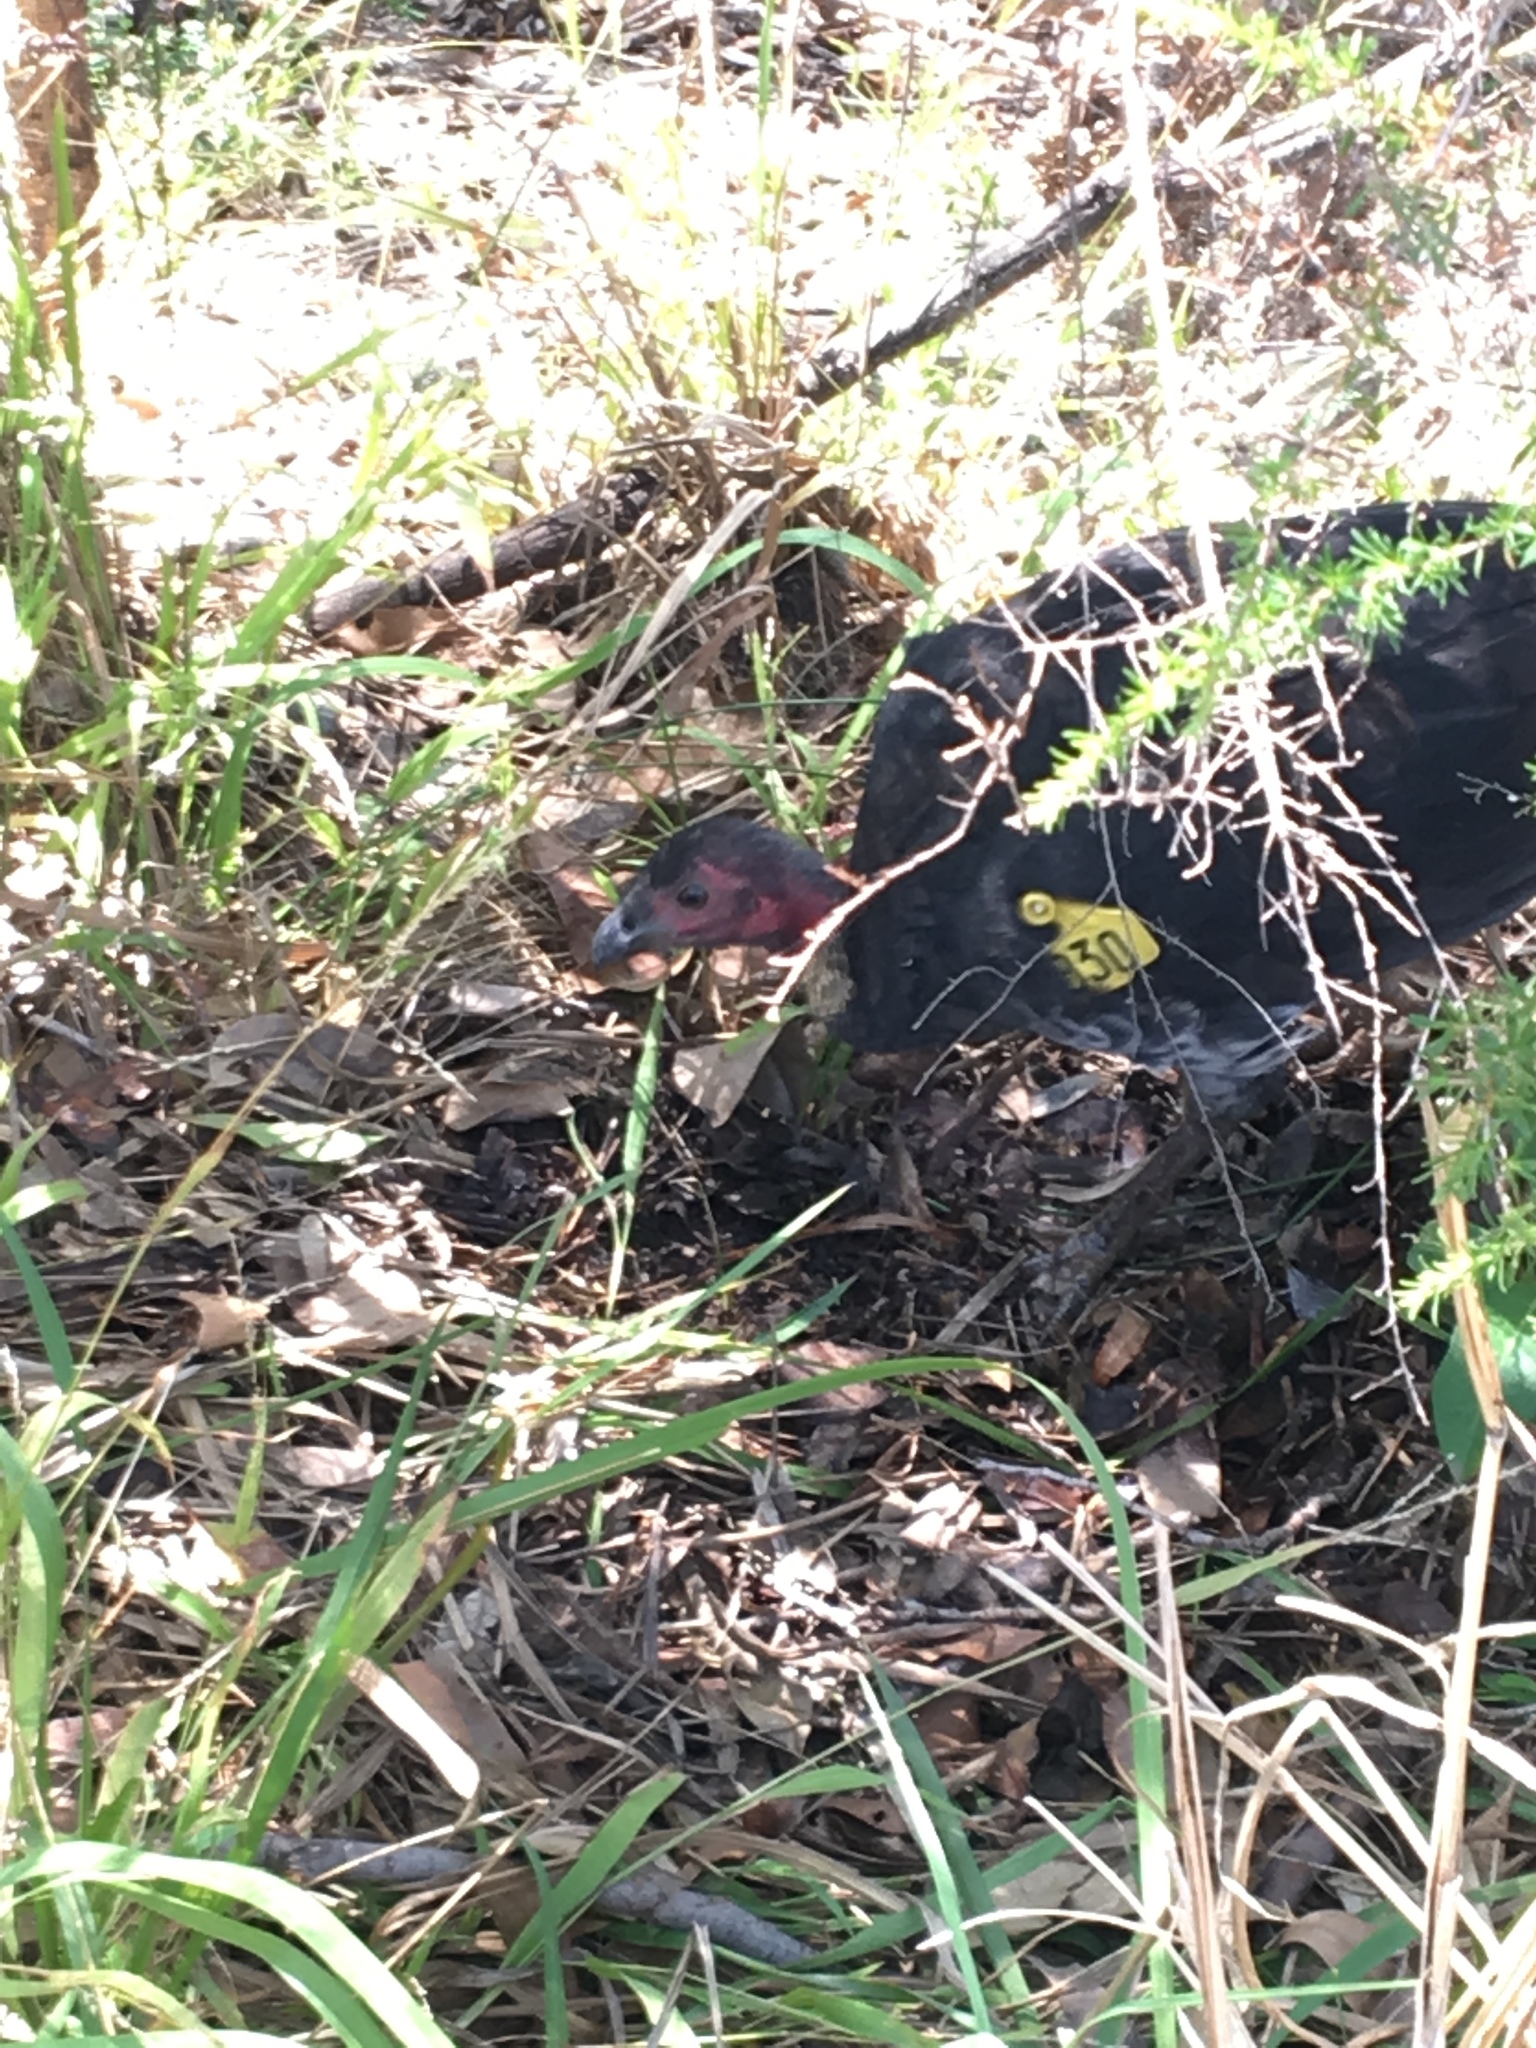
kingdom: Animalia
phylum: Chordata
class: Aves
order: Galliformes
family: Megapodiidae
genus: Alectura
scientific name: Alectura lathami
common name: Australian brushturkey
